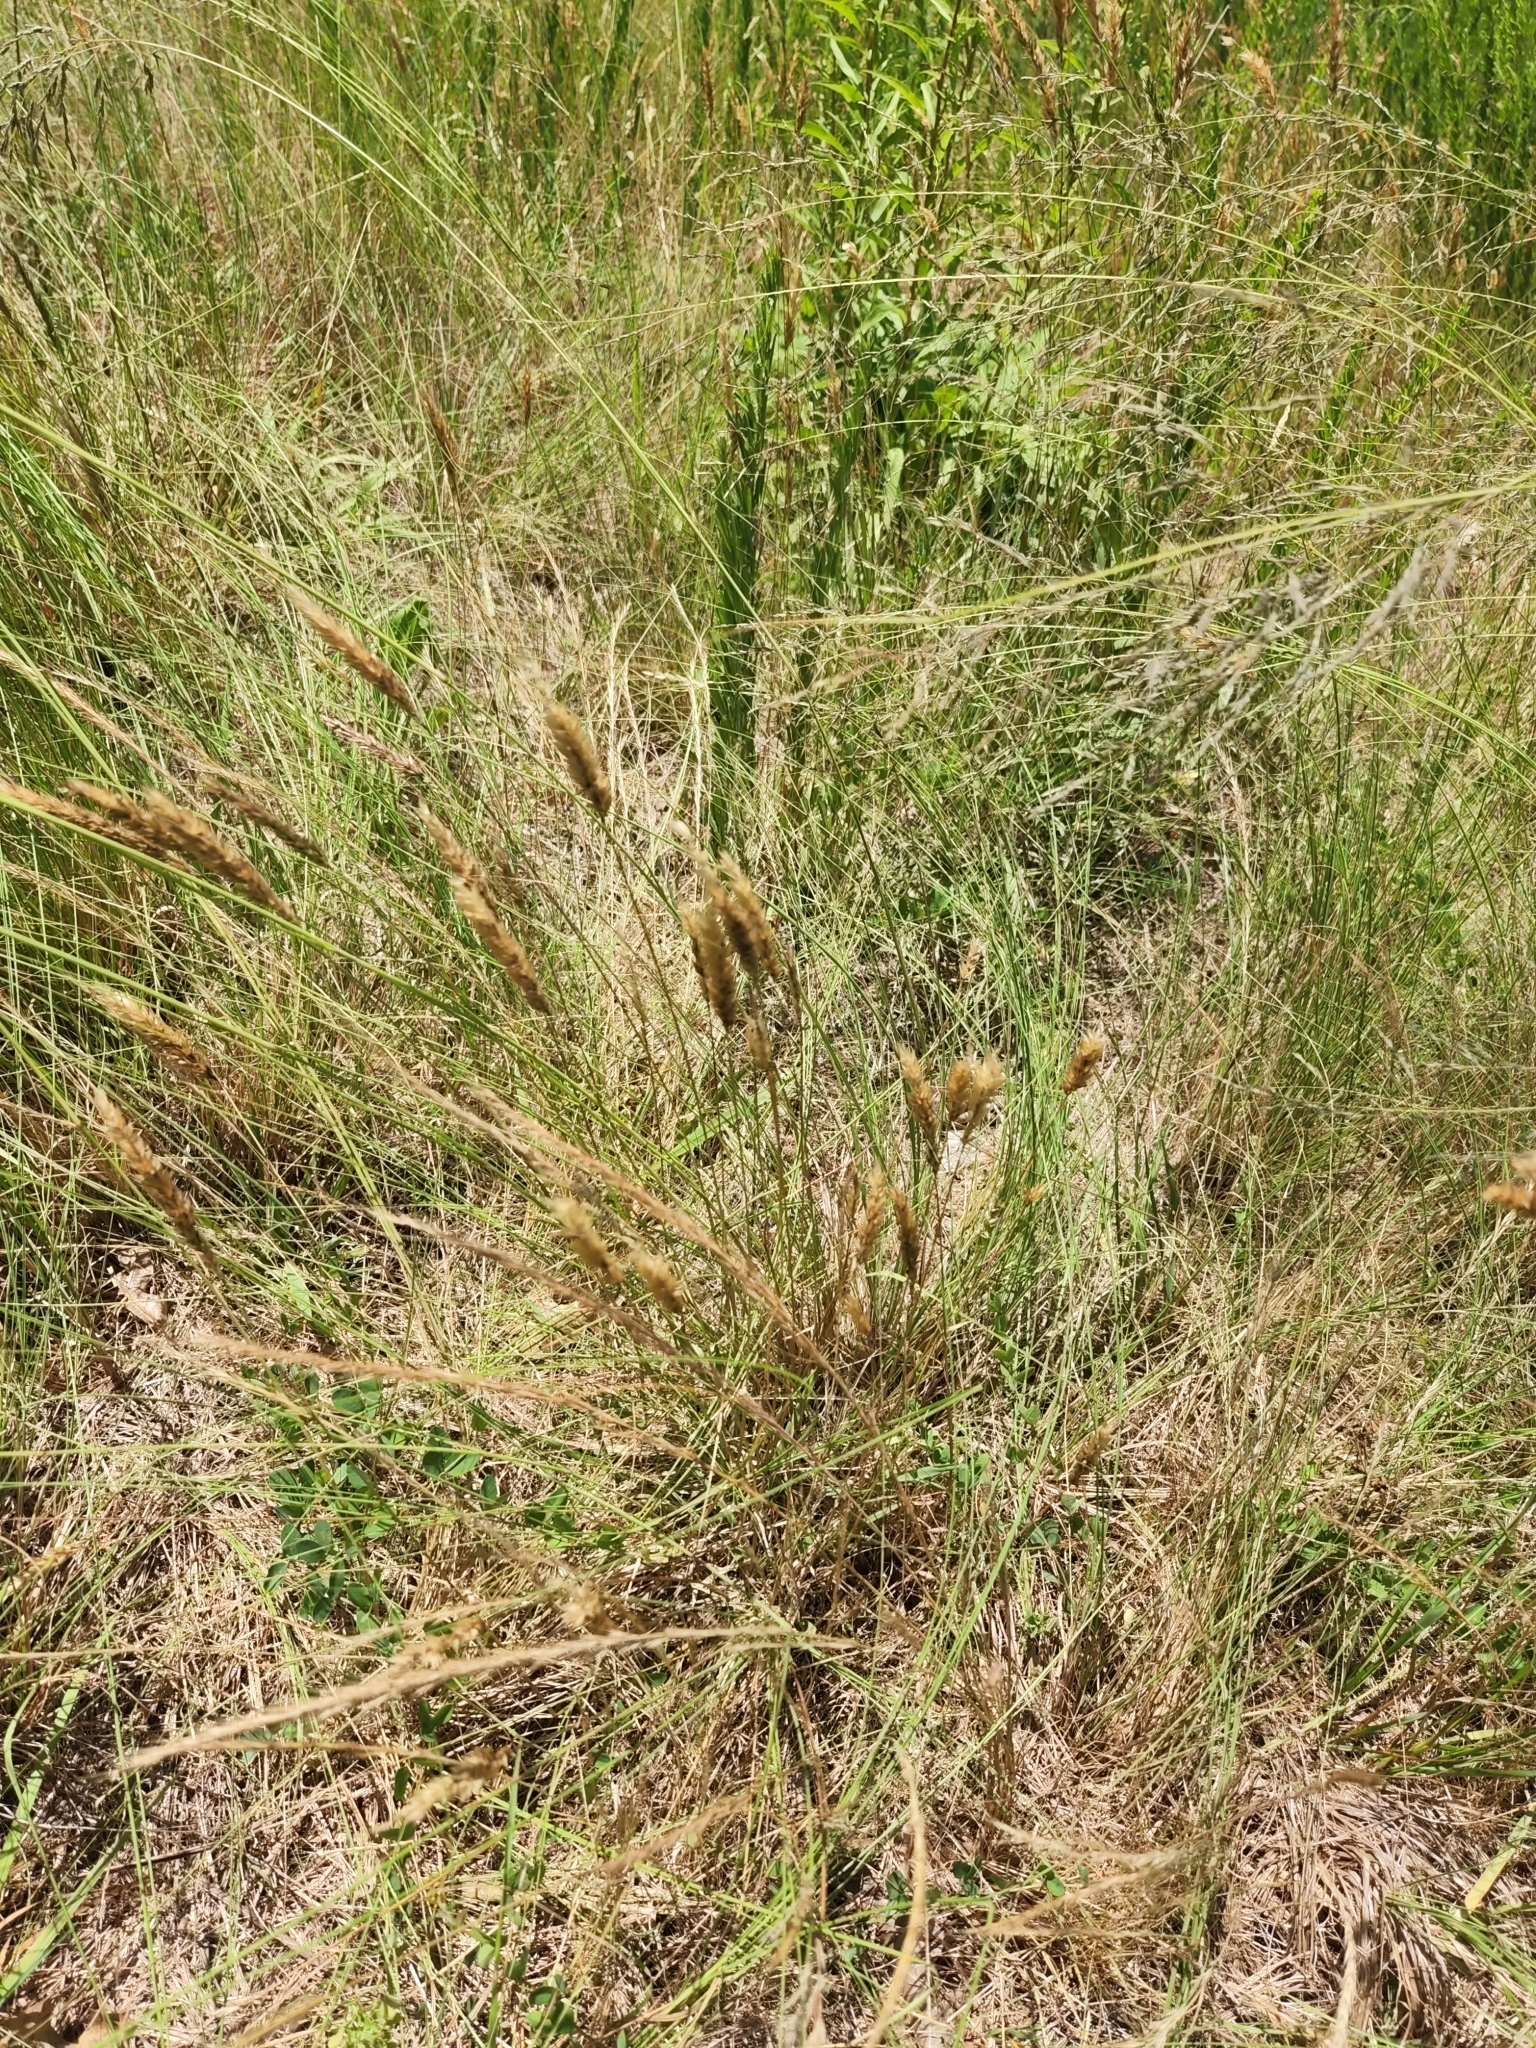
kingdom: Plantae
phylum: Tracheophyta
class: Liliopsida
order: Poales
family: Poaceae
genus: Anthoxanthum
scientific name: Anthoxanthum odoratum
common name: Sweet vernalgrass
